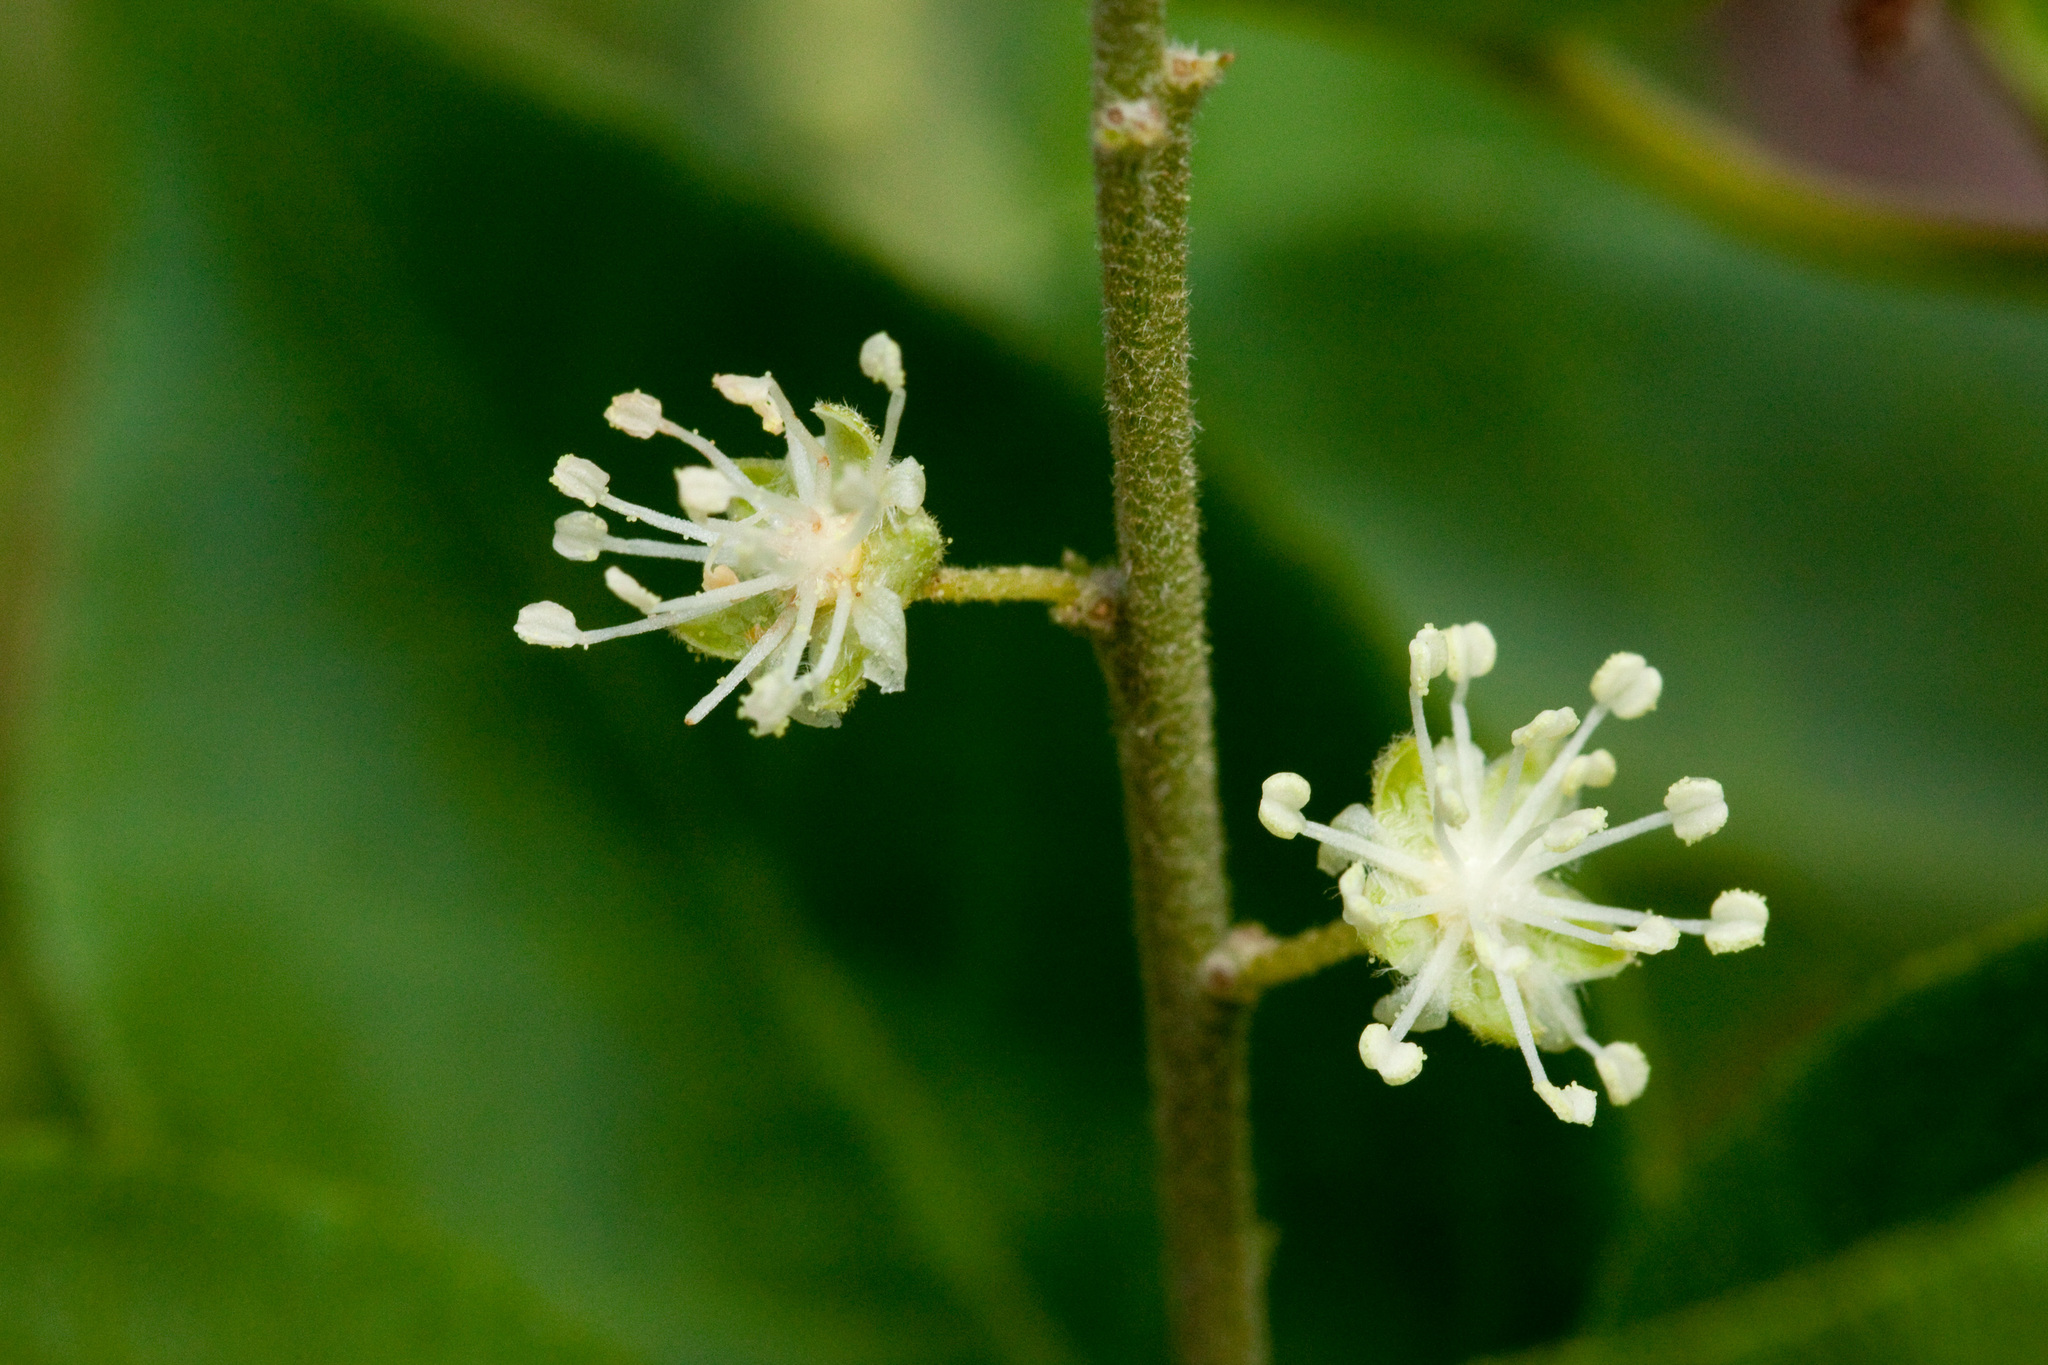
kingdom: Plantae
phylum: Tracheophyta
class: Magnoliopsida
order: Malpighiales
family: Euphorbiaceae
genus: Croton
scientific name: Croton fruticulosus
